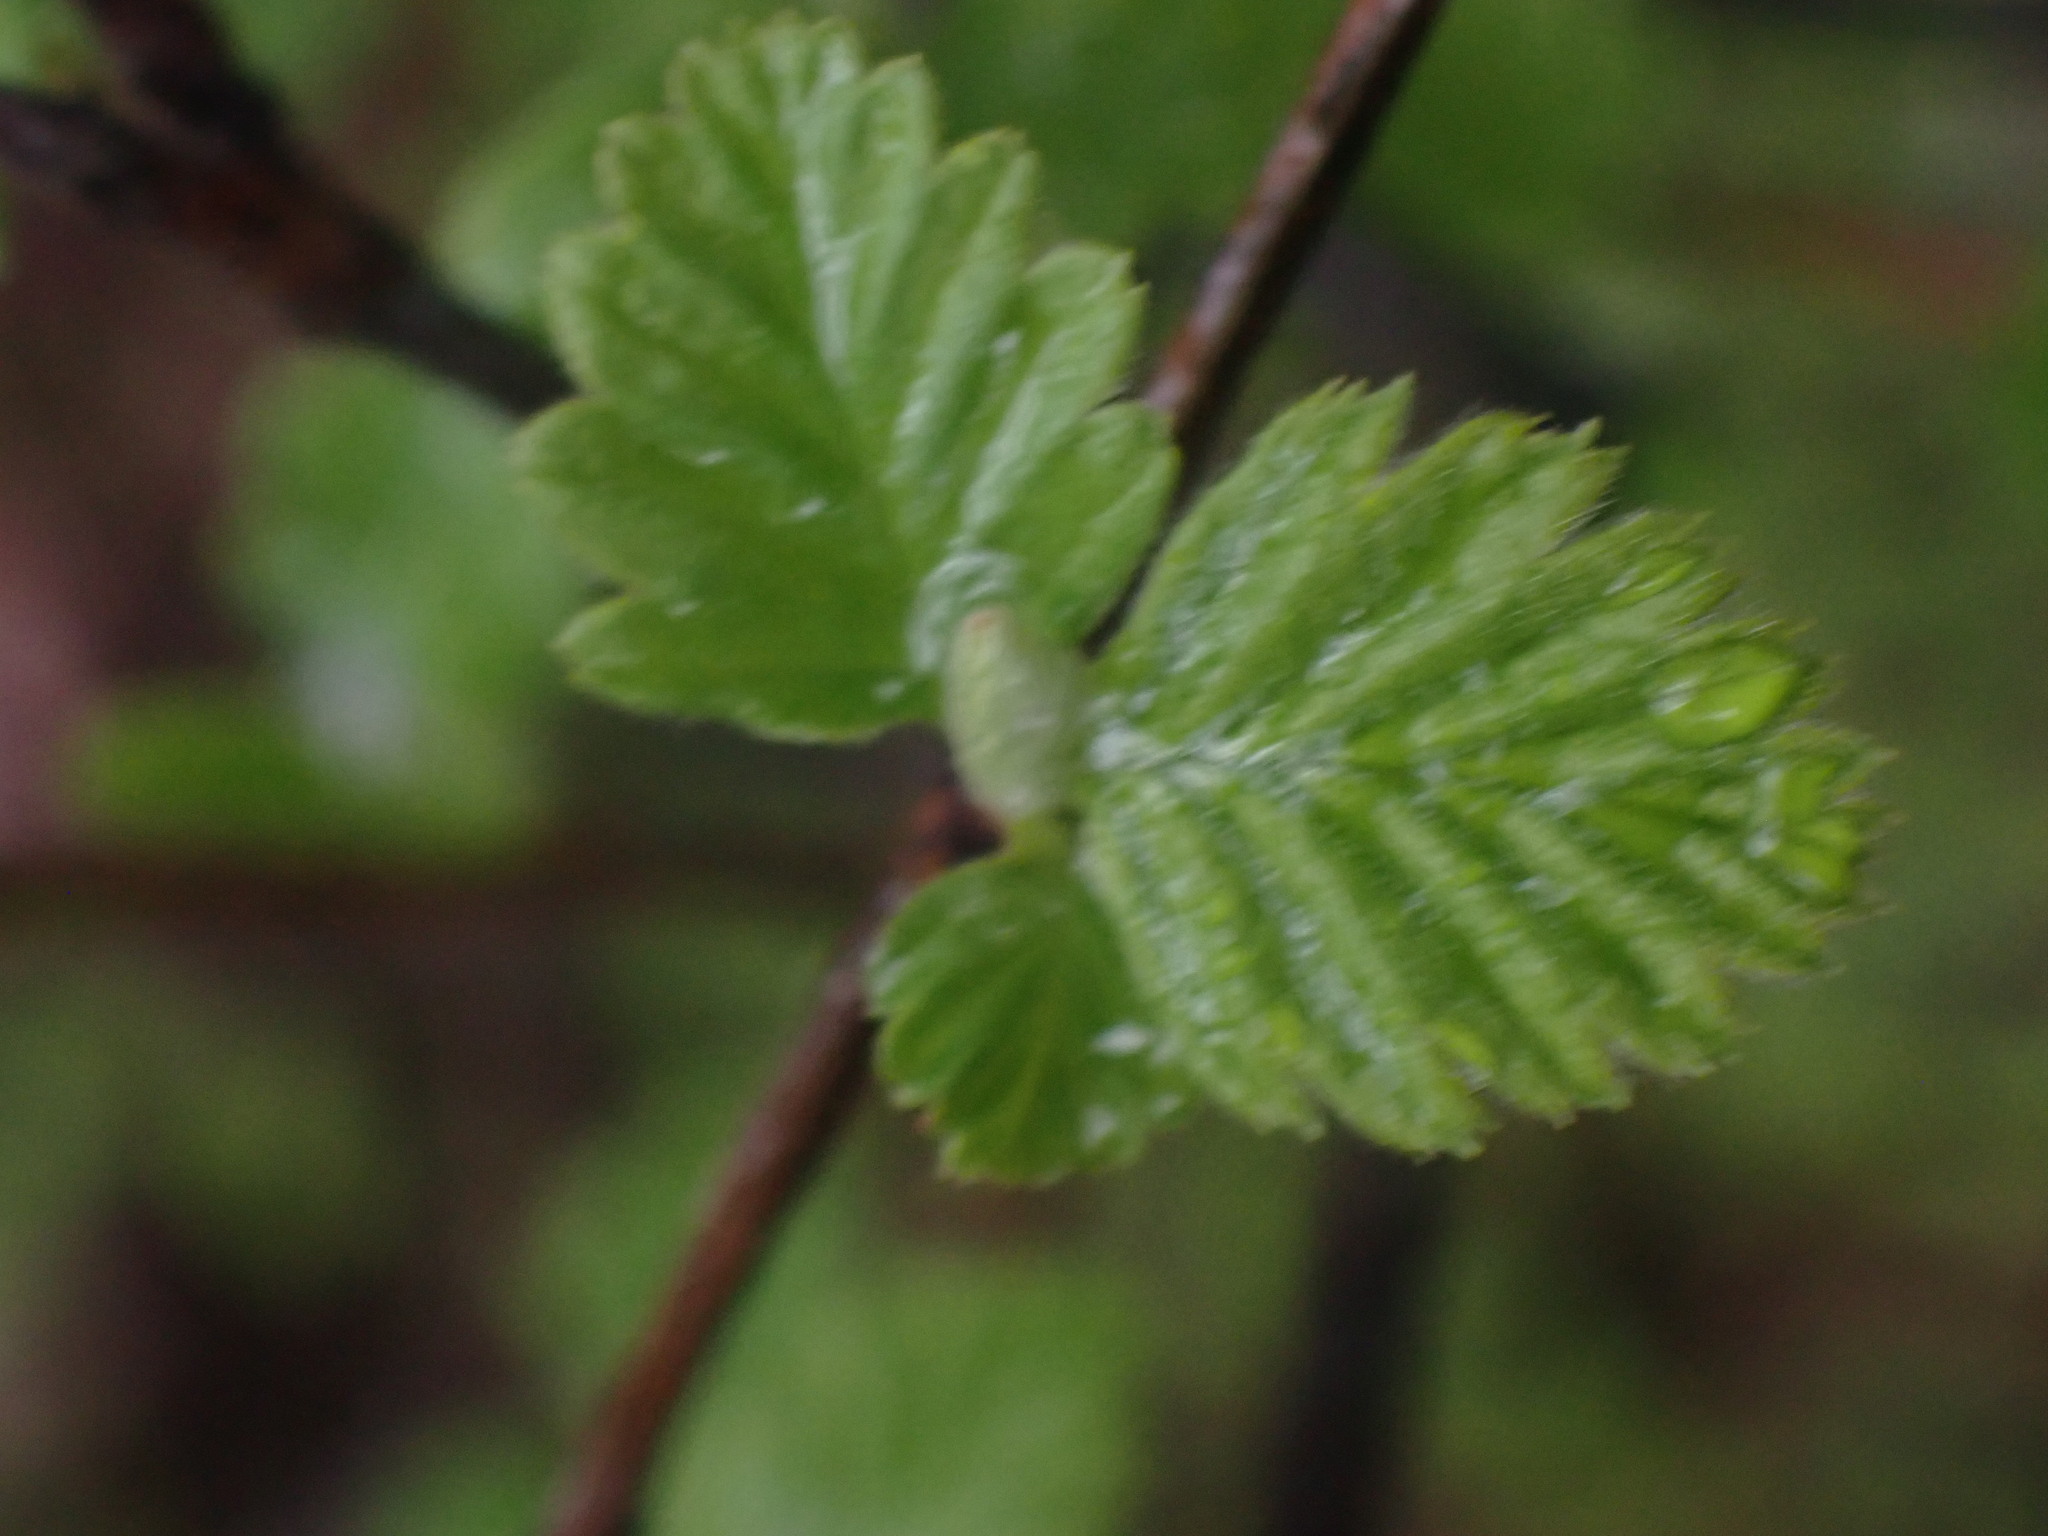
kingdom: Plantae
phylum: Tracheophyta
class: Magnoliopsida
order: Rosales
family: Rosaceae
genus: Holodiscus
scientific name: Holodiscus discolor
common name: Oceanspray
